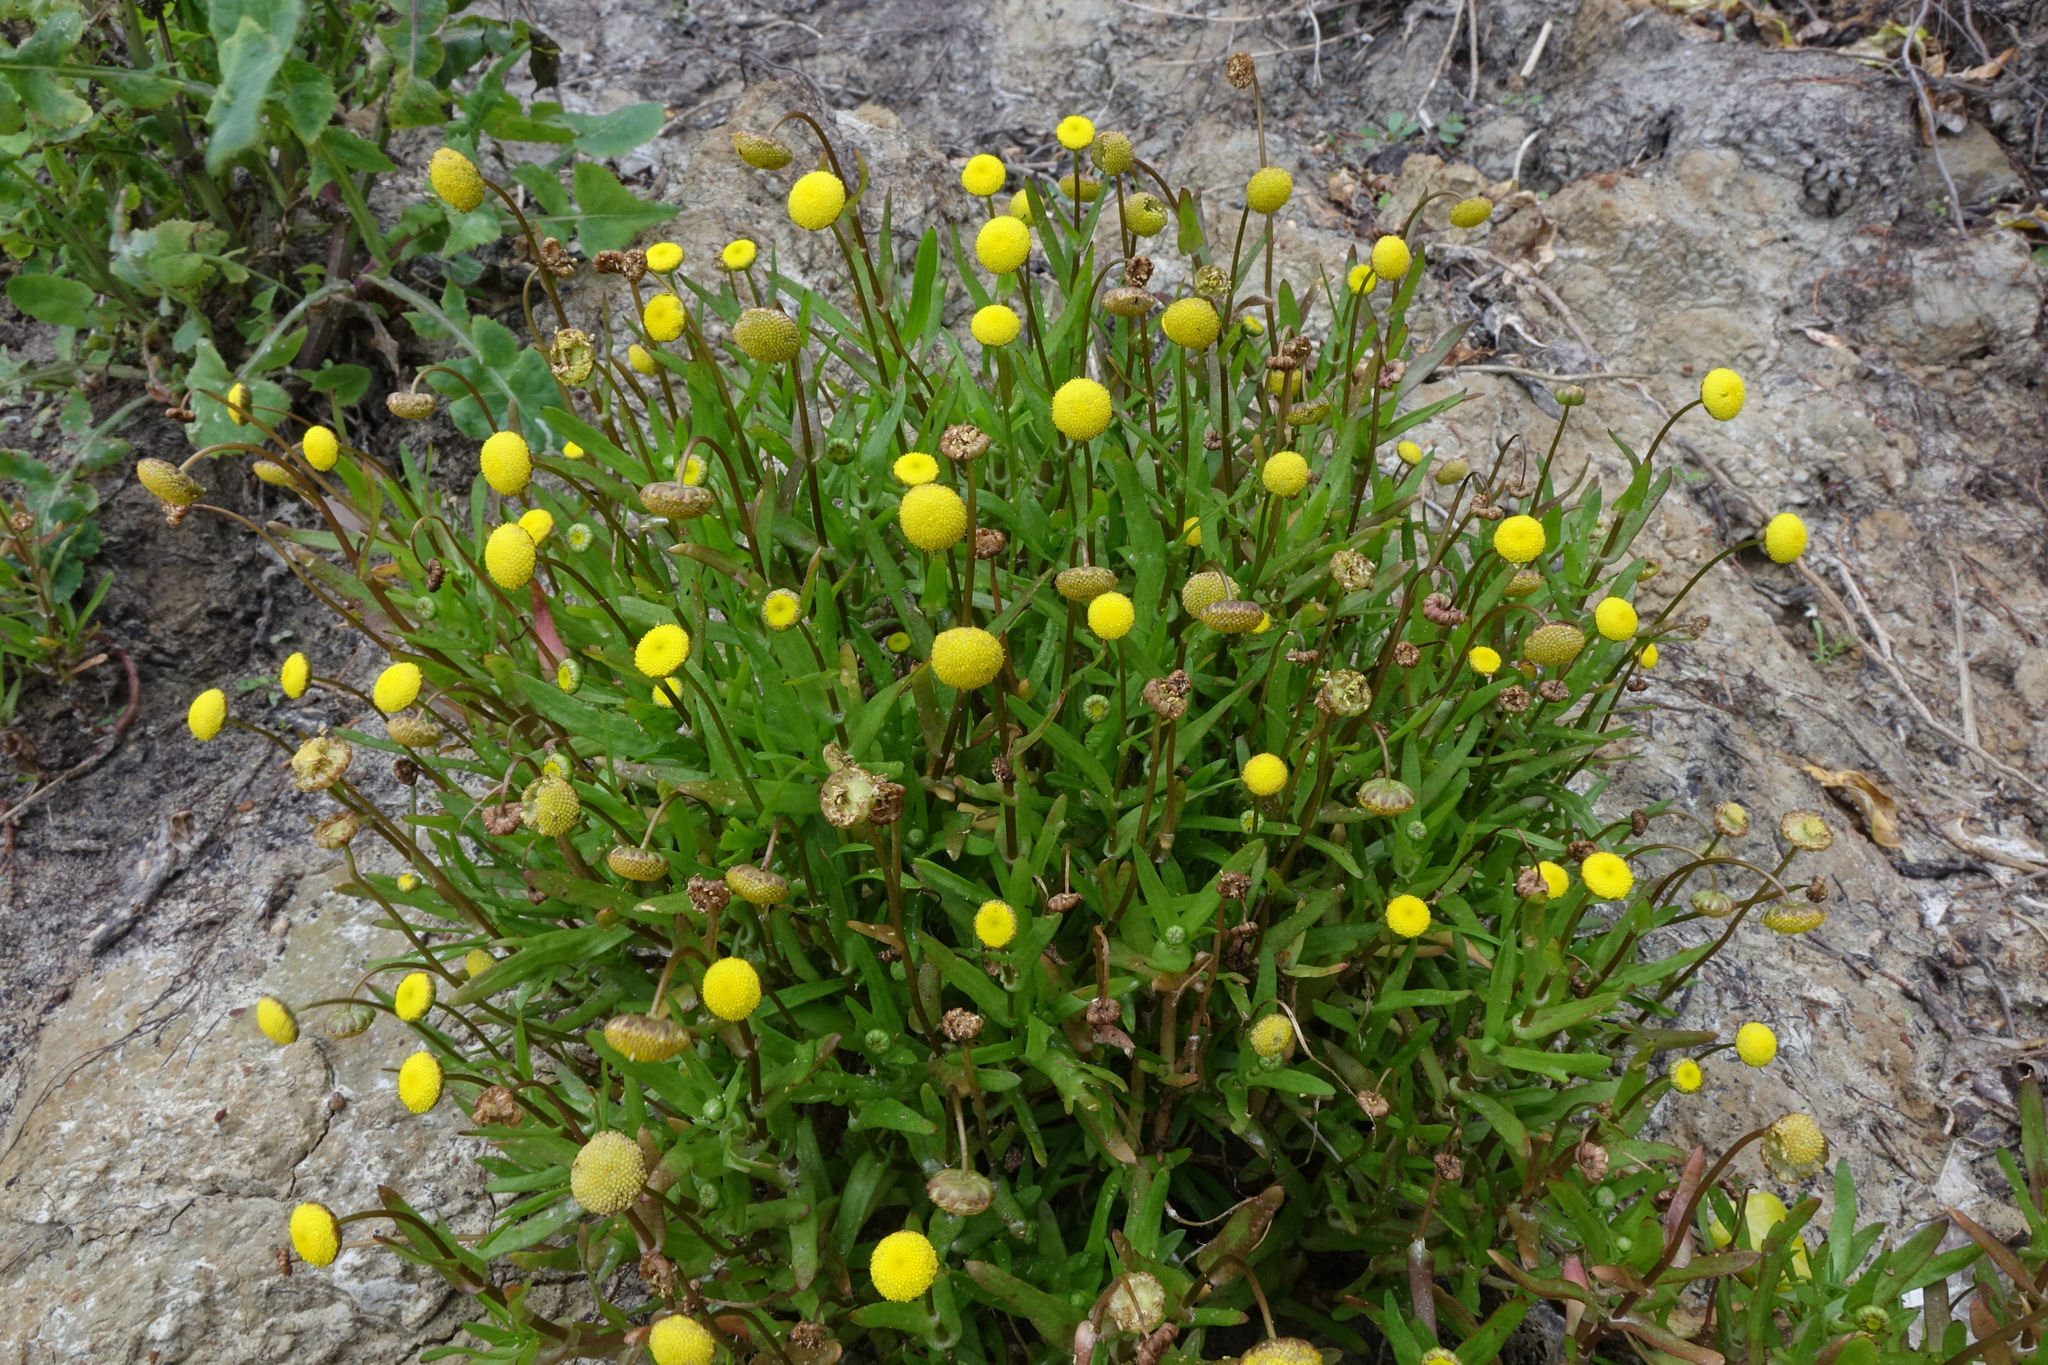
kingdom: Plantae
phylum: Tracheophyta
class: Magnoliopsida
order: Asterales
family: Asteraceae
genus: Cotula
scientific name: Cotula coronopifolia
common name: Buttonweed
